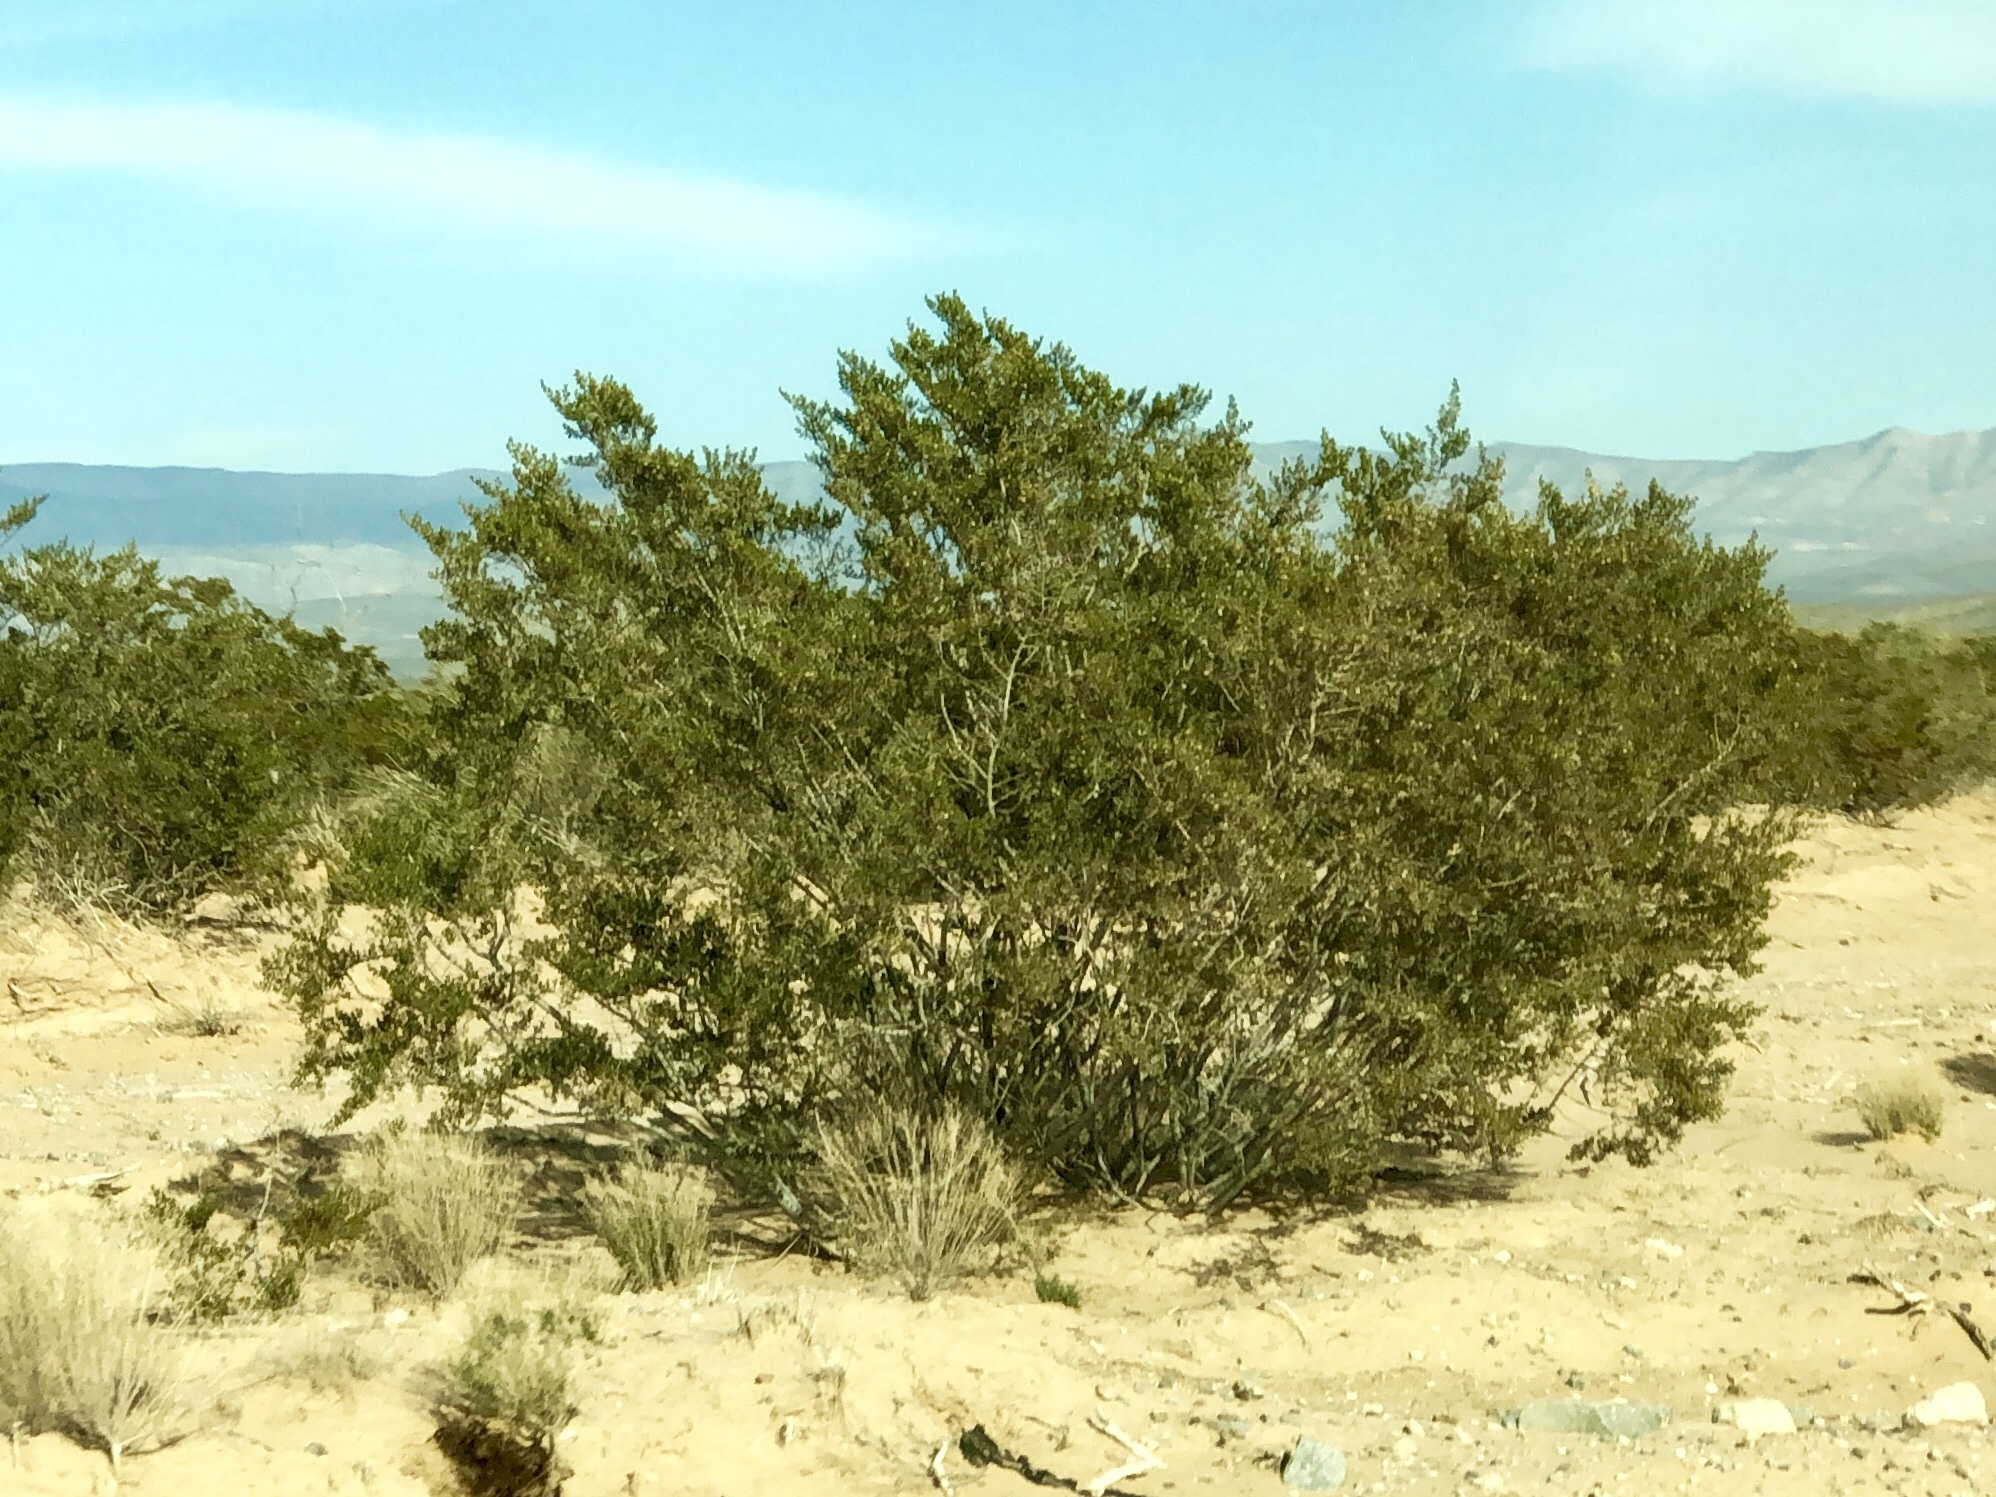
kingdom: Plantae
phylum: Tracheophyta
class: Magnoliopsida
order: Zygophyllales
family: Zygophyllaceae
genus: Larrea
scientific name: Larrea tridentata
